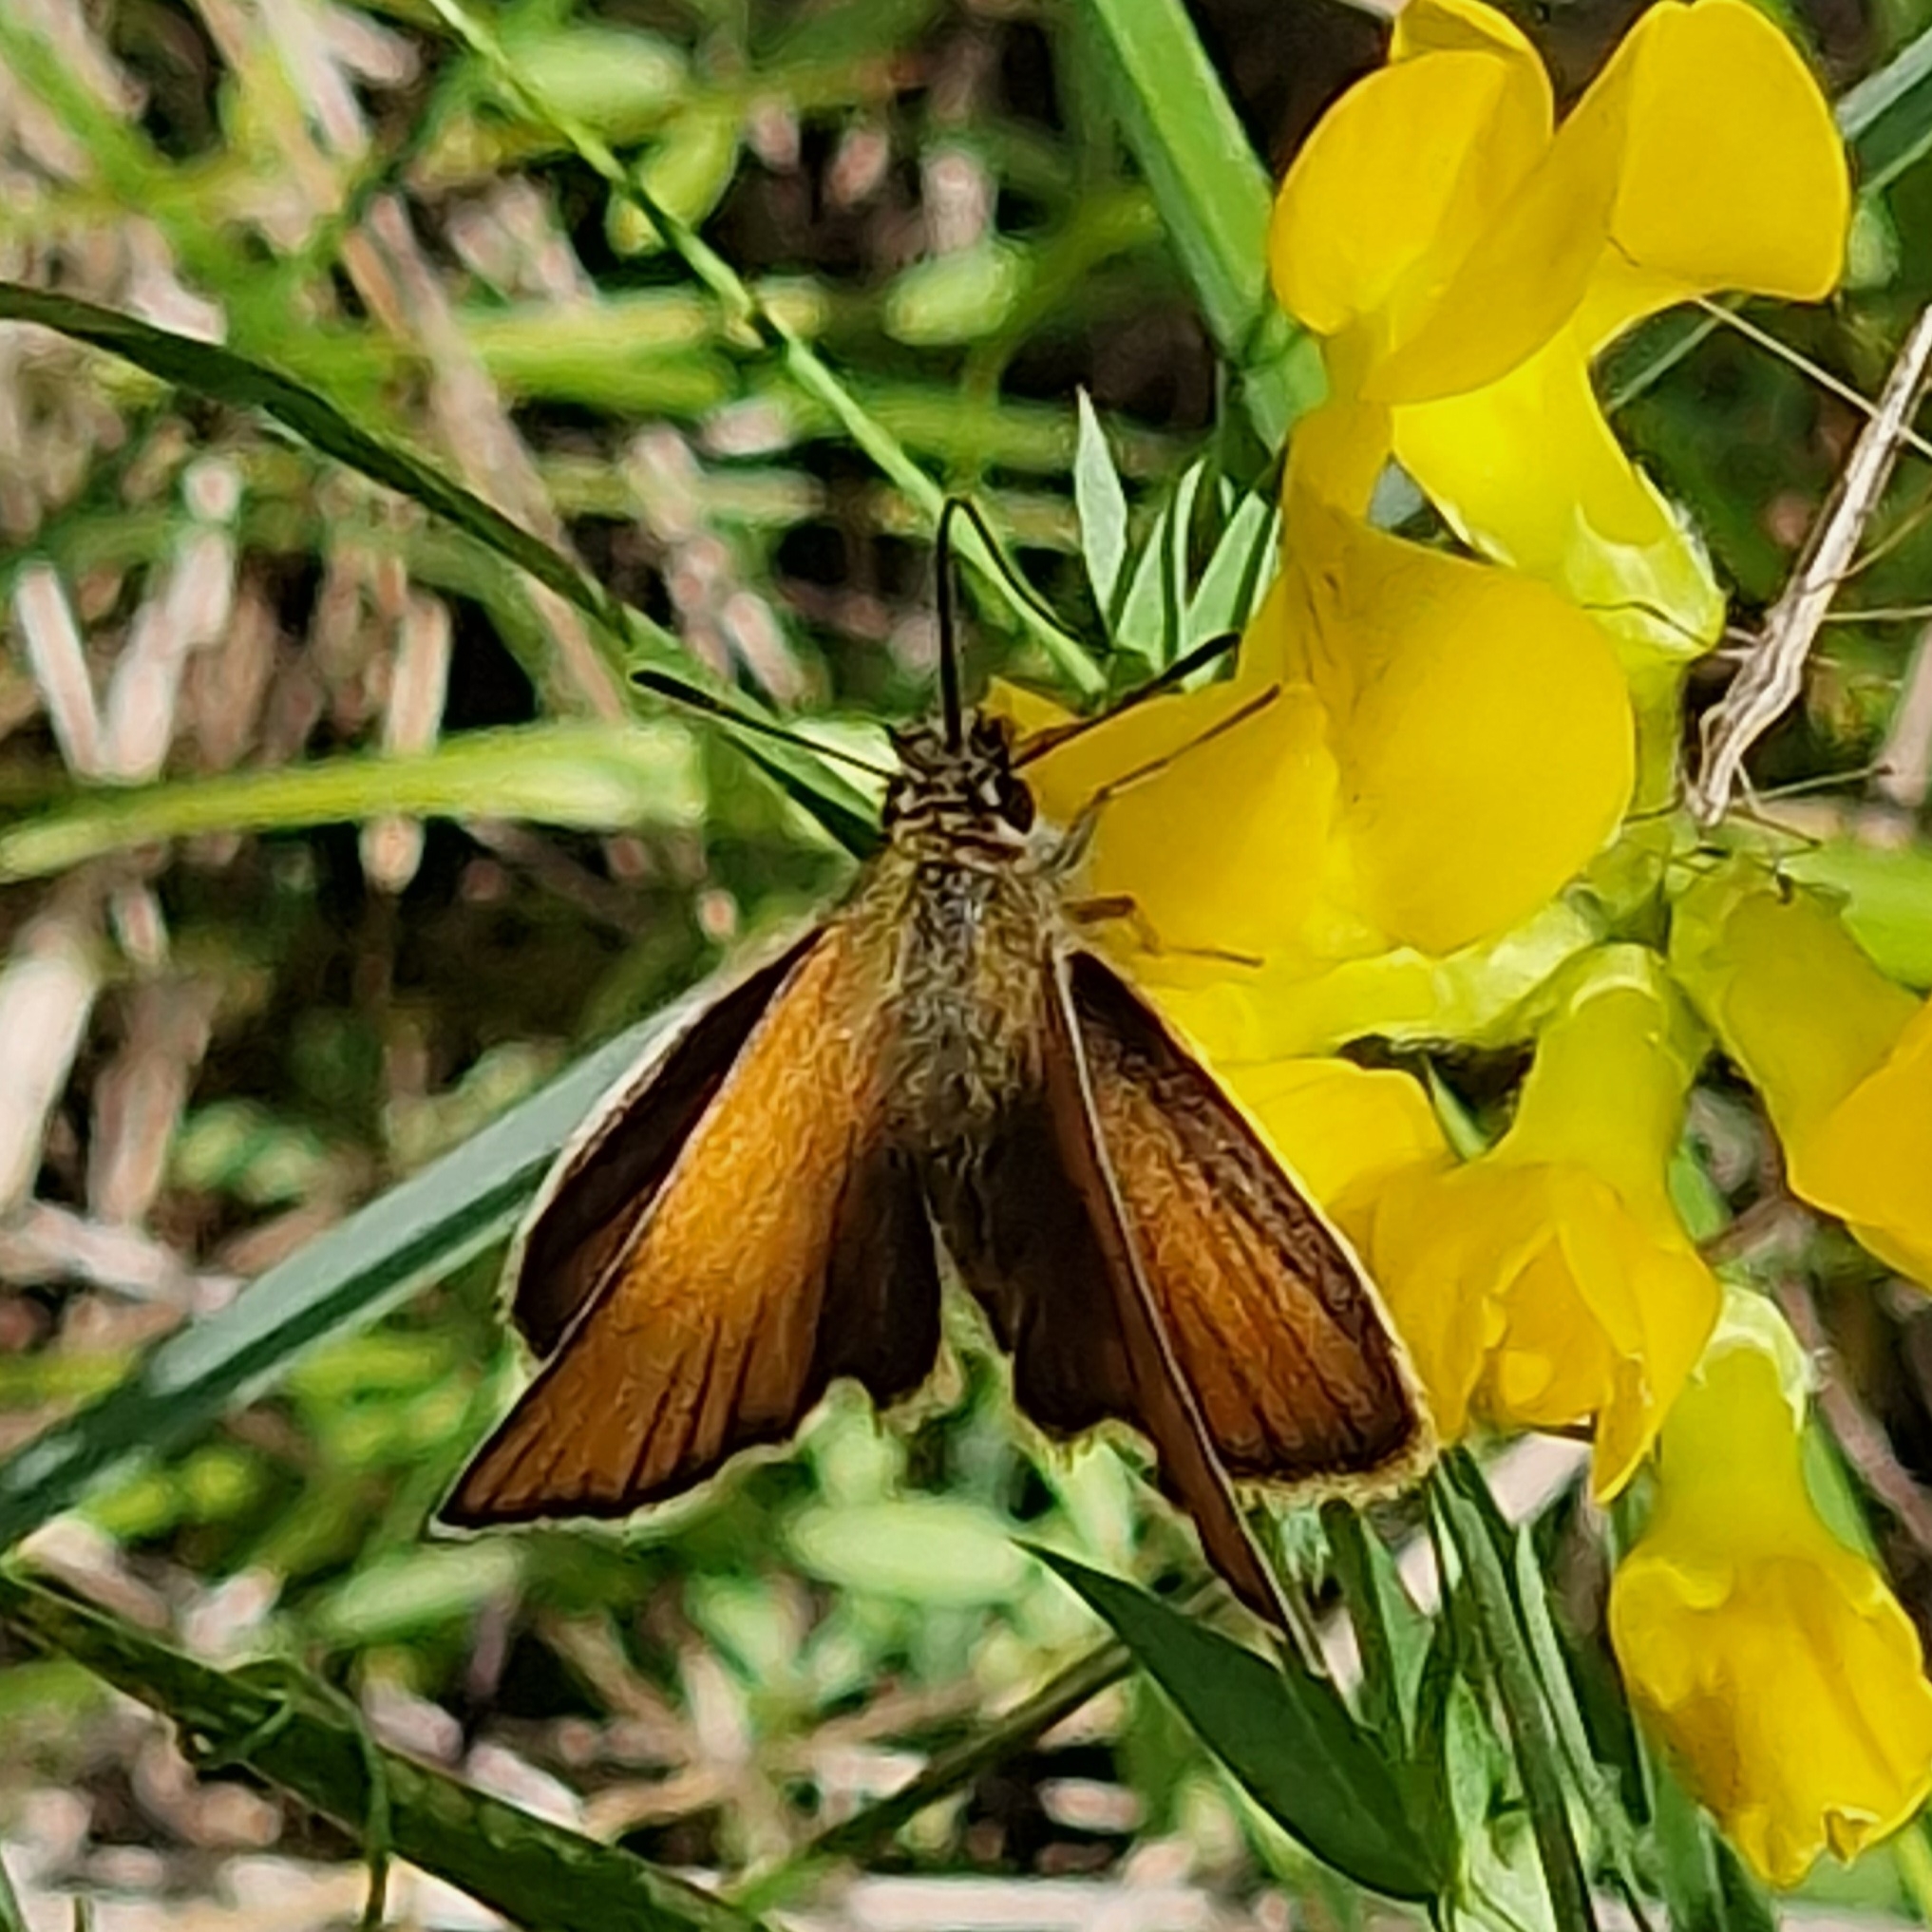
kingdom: Animalia
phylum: Arthropoda
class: Insecta
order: Lepidoptera
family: Hesperiidae
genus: Thymelicus
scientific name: Thymelicus lineola
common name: Essex skipper
